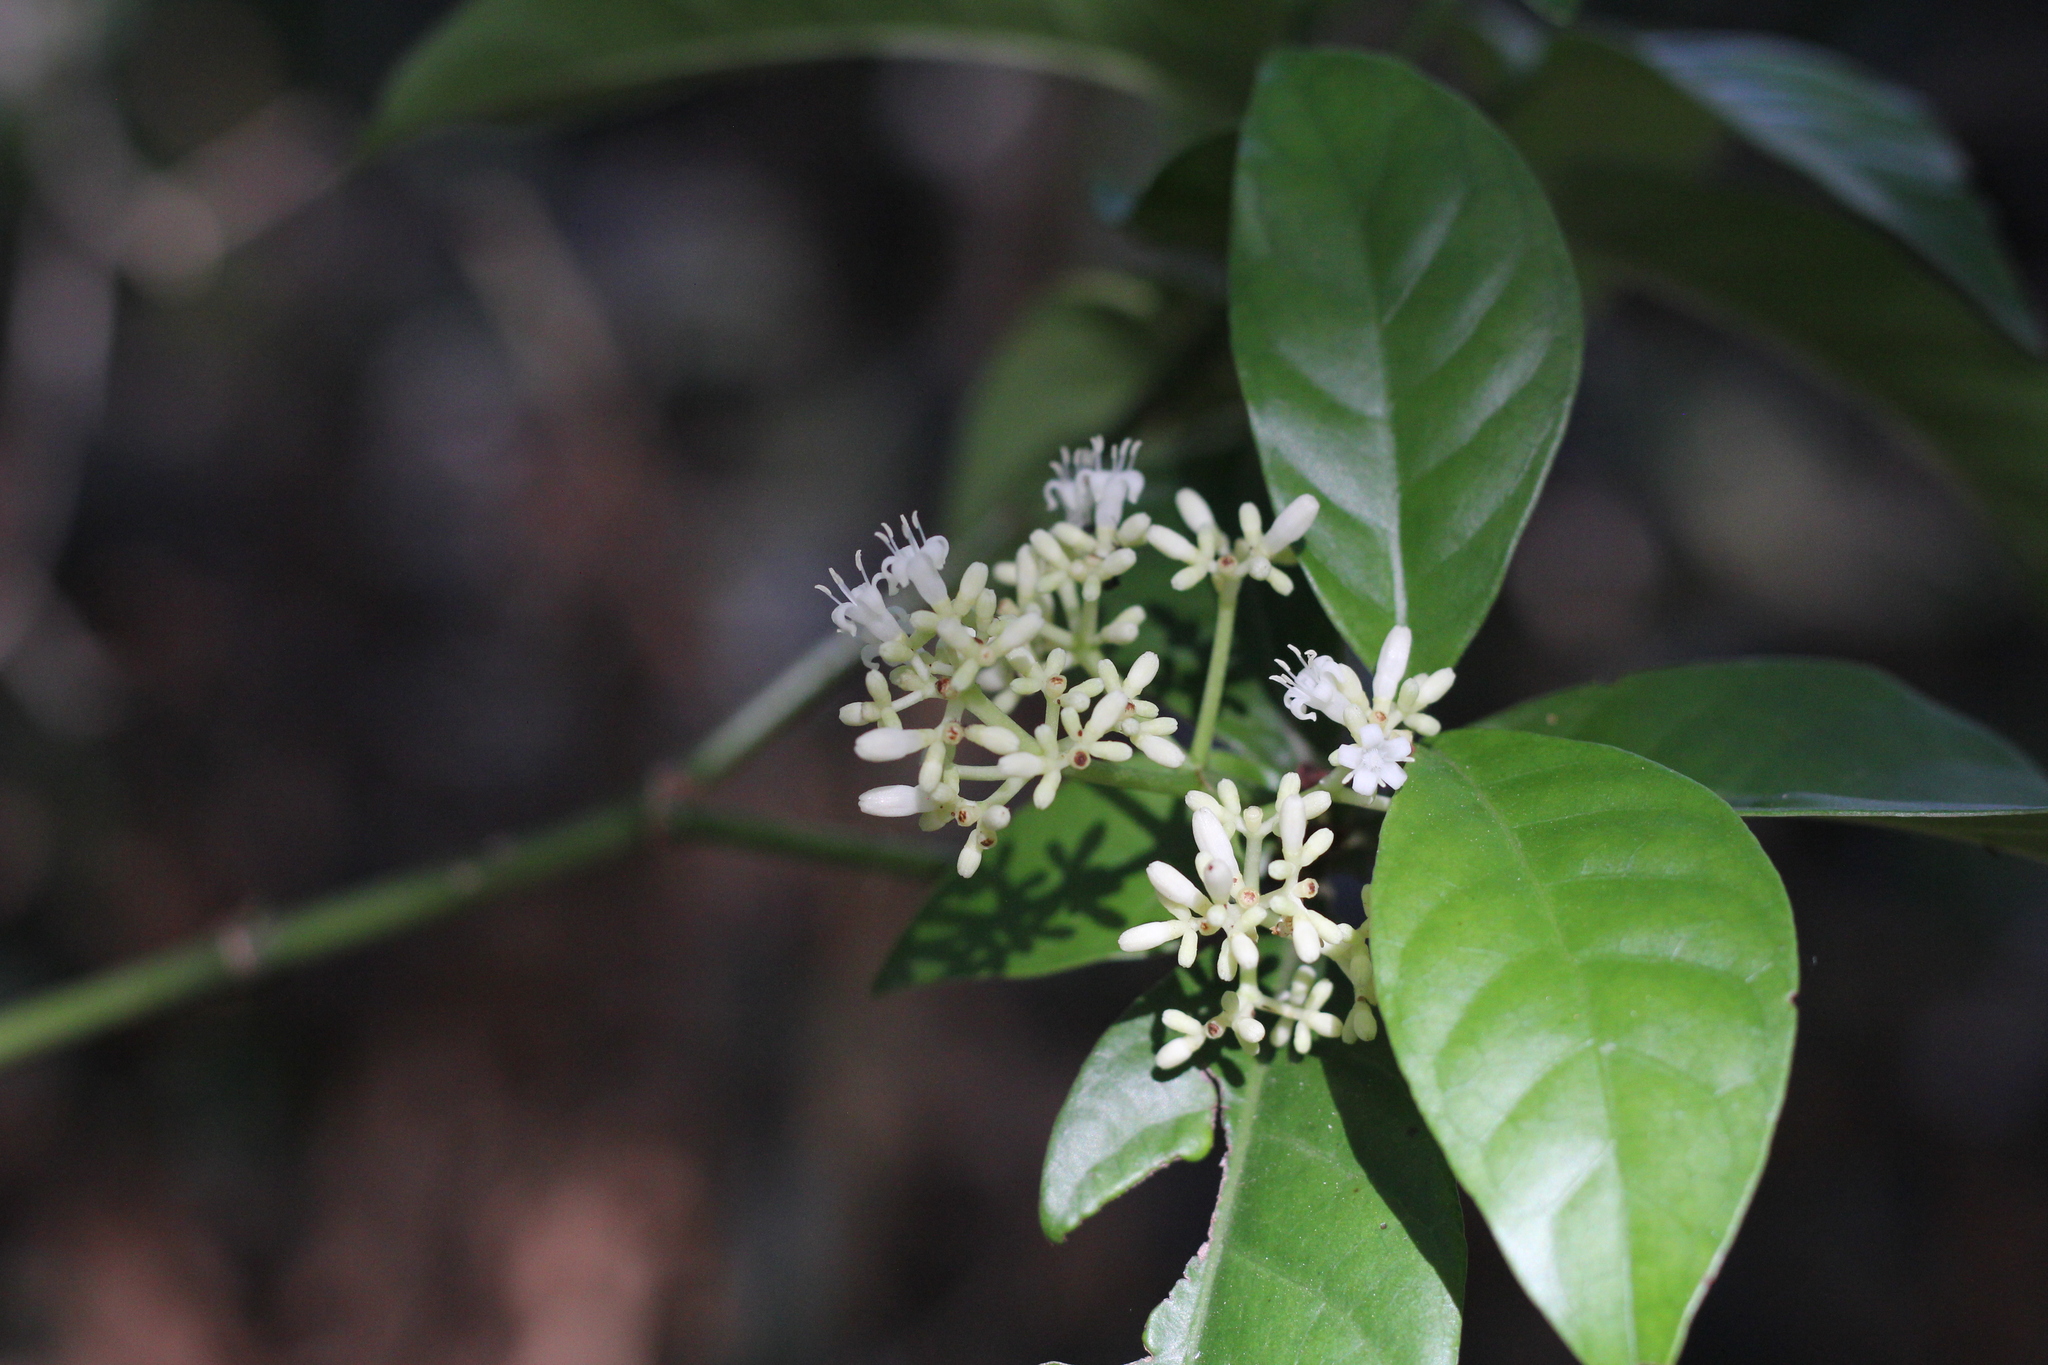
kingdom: Plantae
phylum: Tracheophyta
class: Magnoliopsida
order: Gentianales
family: Rubiaceae
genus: Psychotria
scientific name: Psychotria carthagenensis
